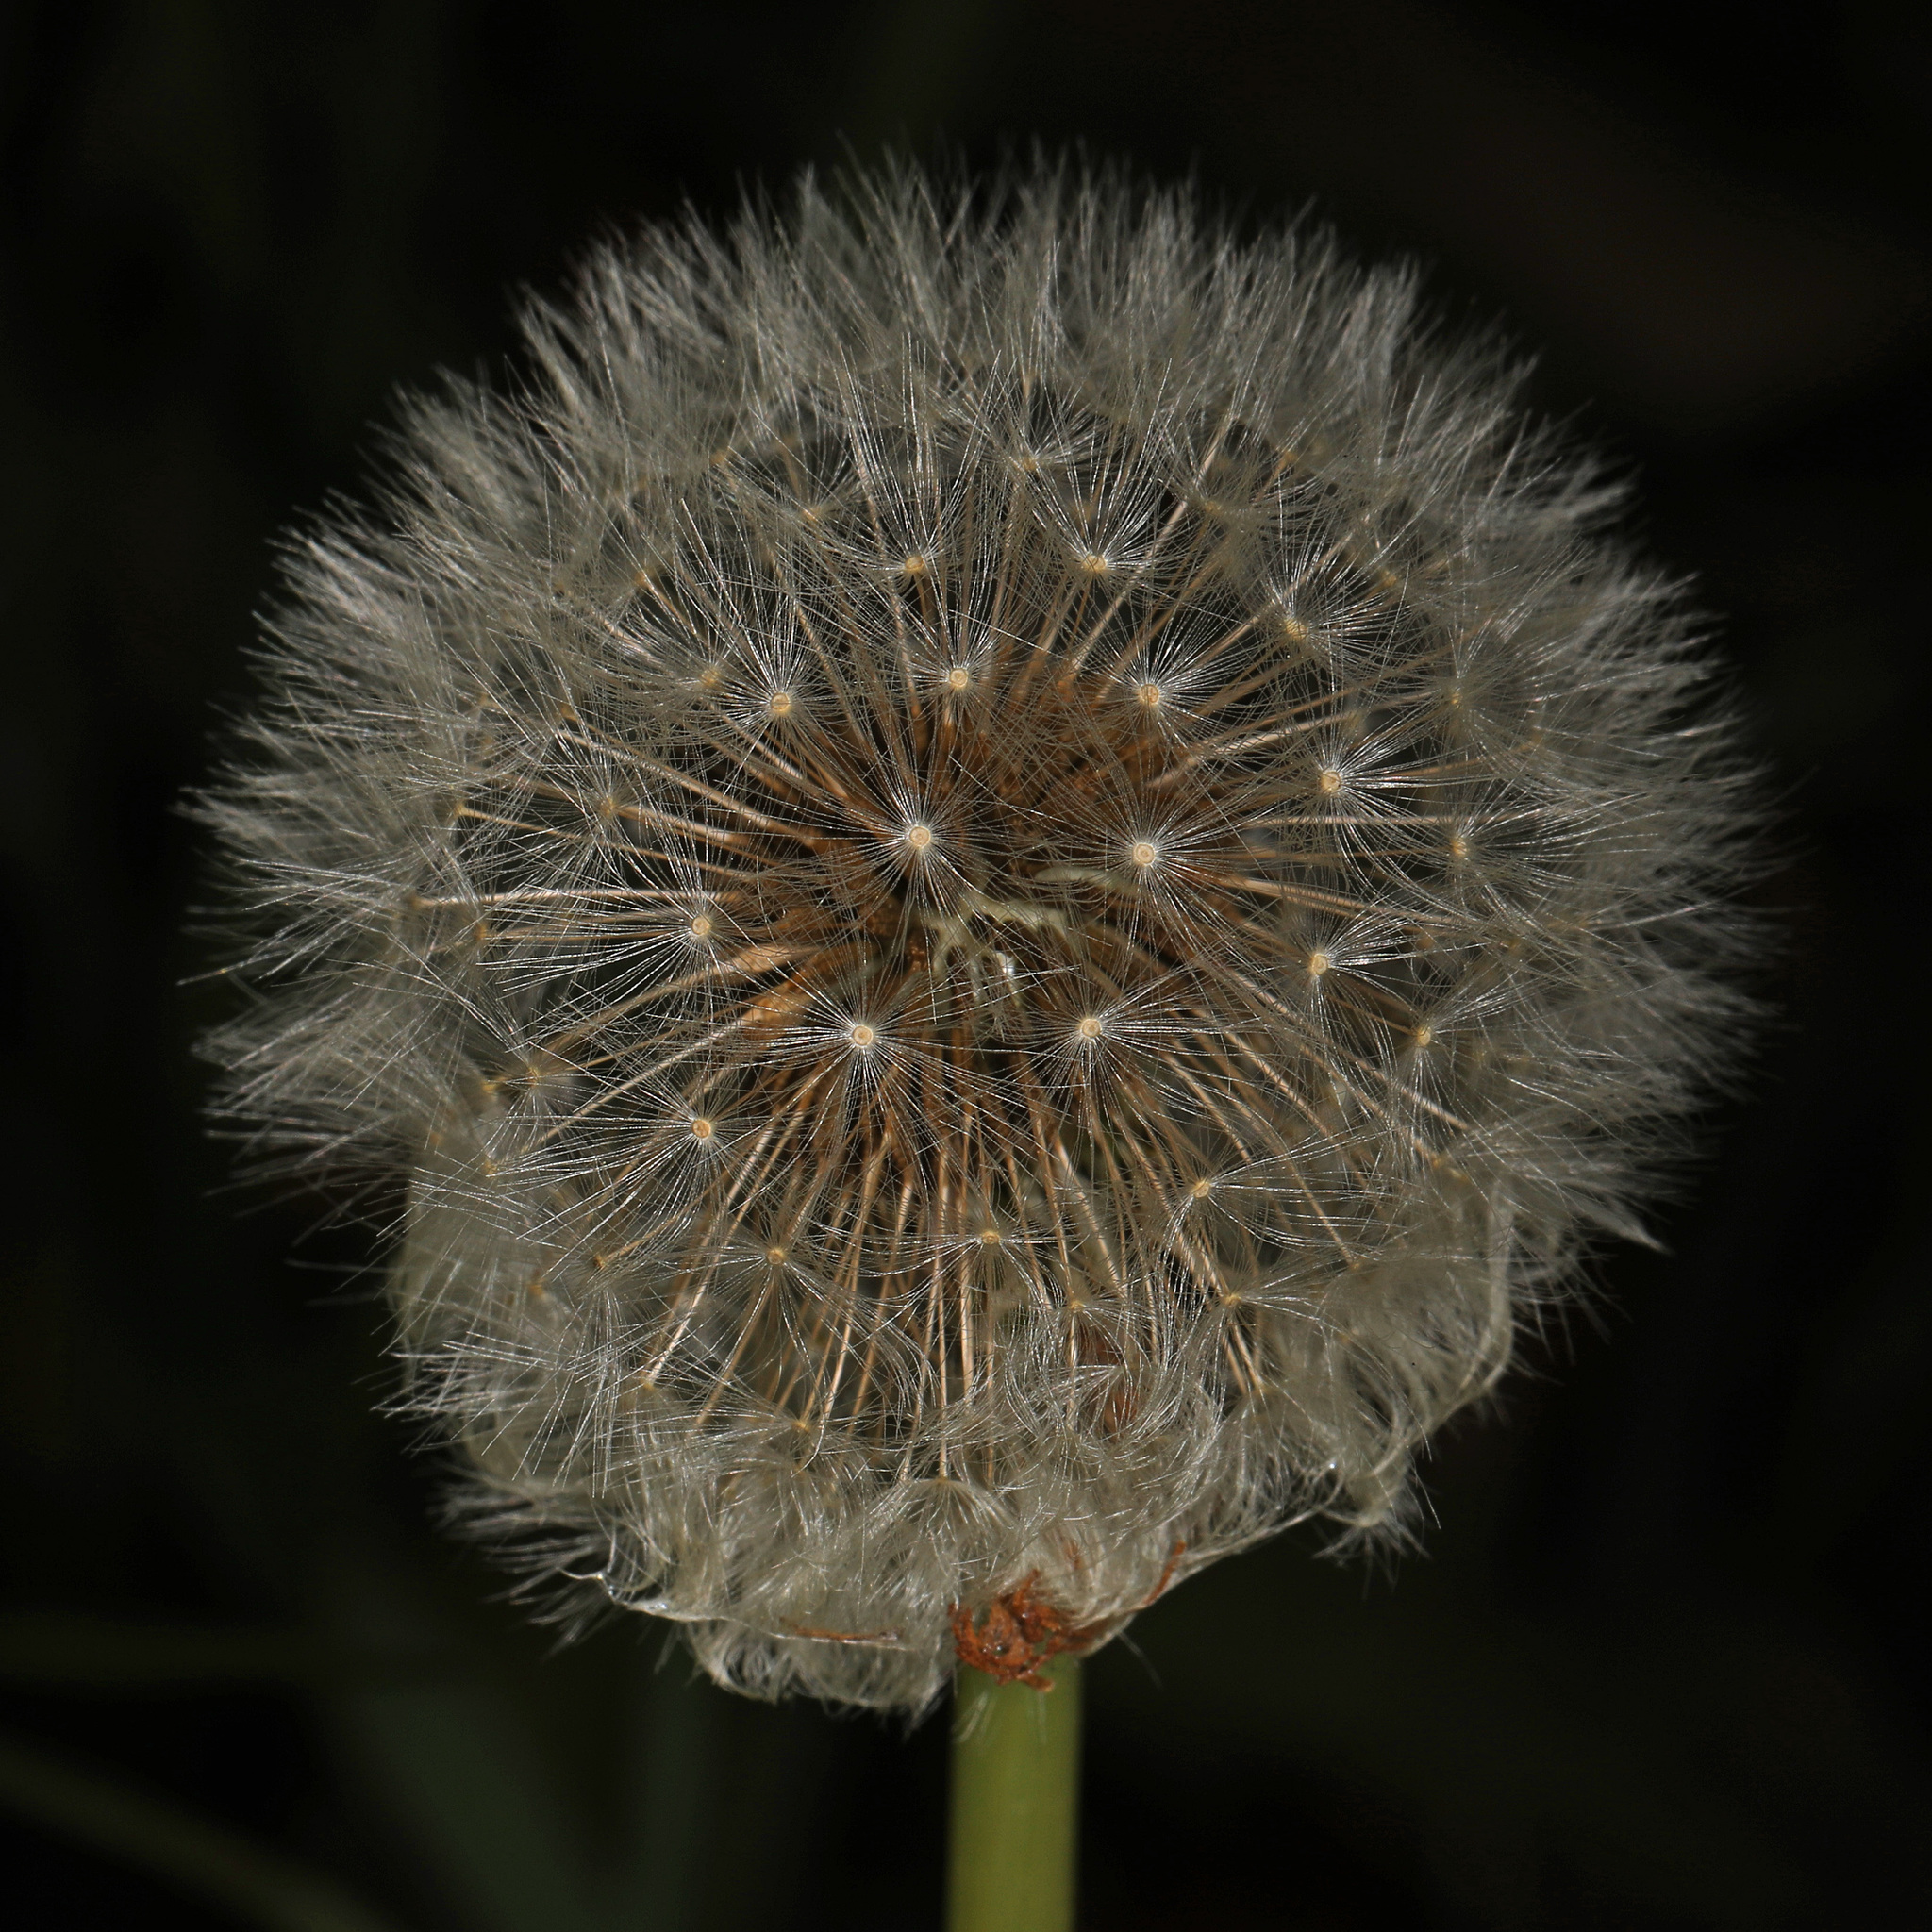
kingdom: Plantae
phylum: Tracheophyta
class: Magnoliopsida
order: Asterales
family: Asteraceae
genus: Taraxacum
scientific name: Taraxacum officinale
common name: Common dandelion
